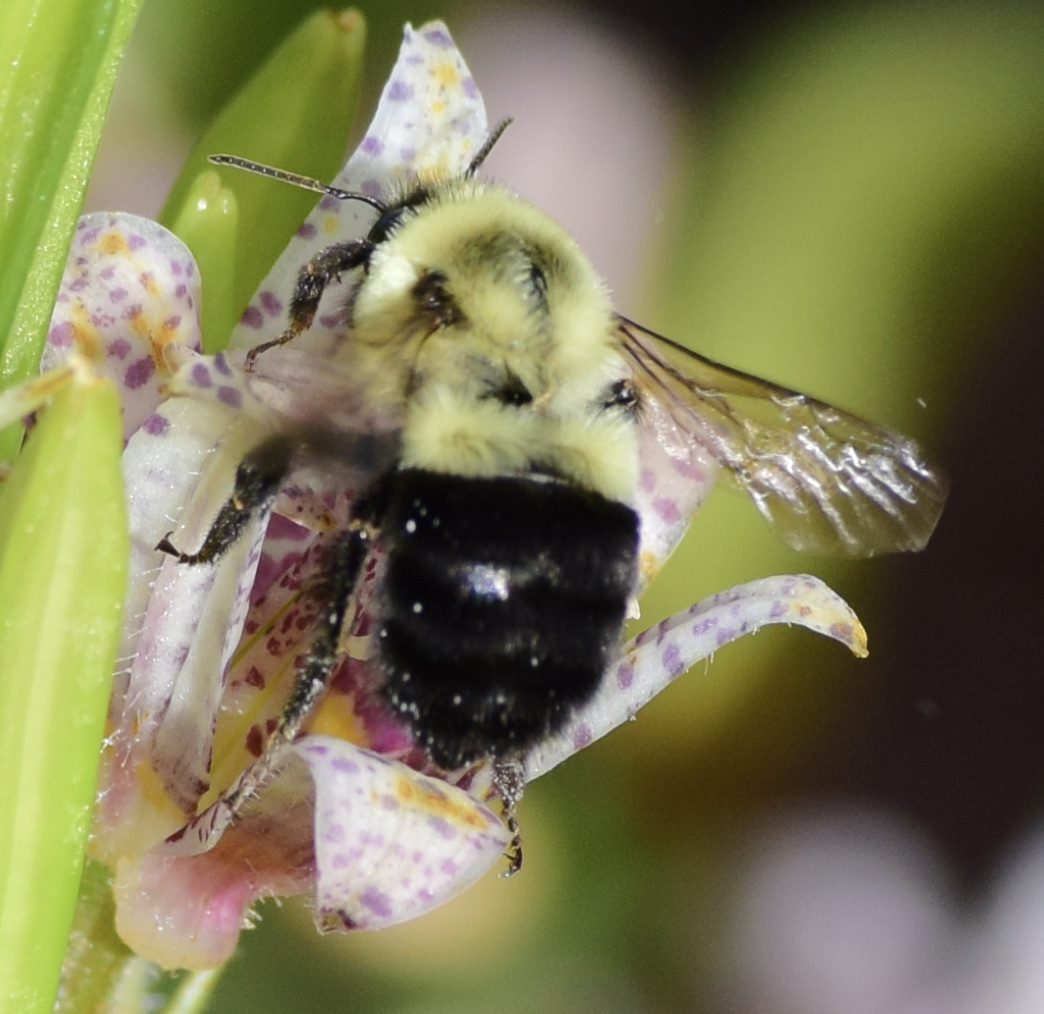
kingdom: Animalia
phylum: Arthropoda
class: Insecta
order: Hymenoptera
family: Apidae
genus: Bombus
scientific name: Bombus impatiens
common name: Common eastern bumble bee
